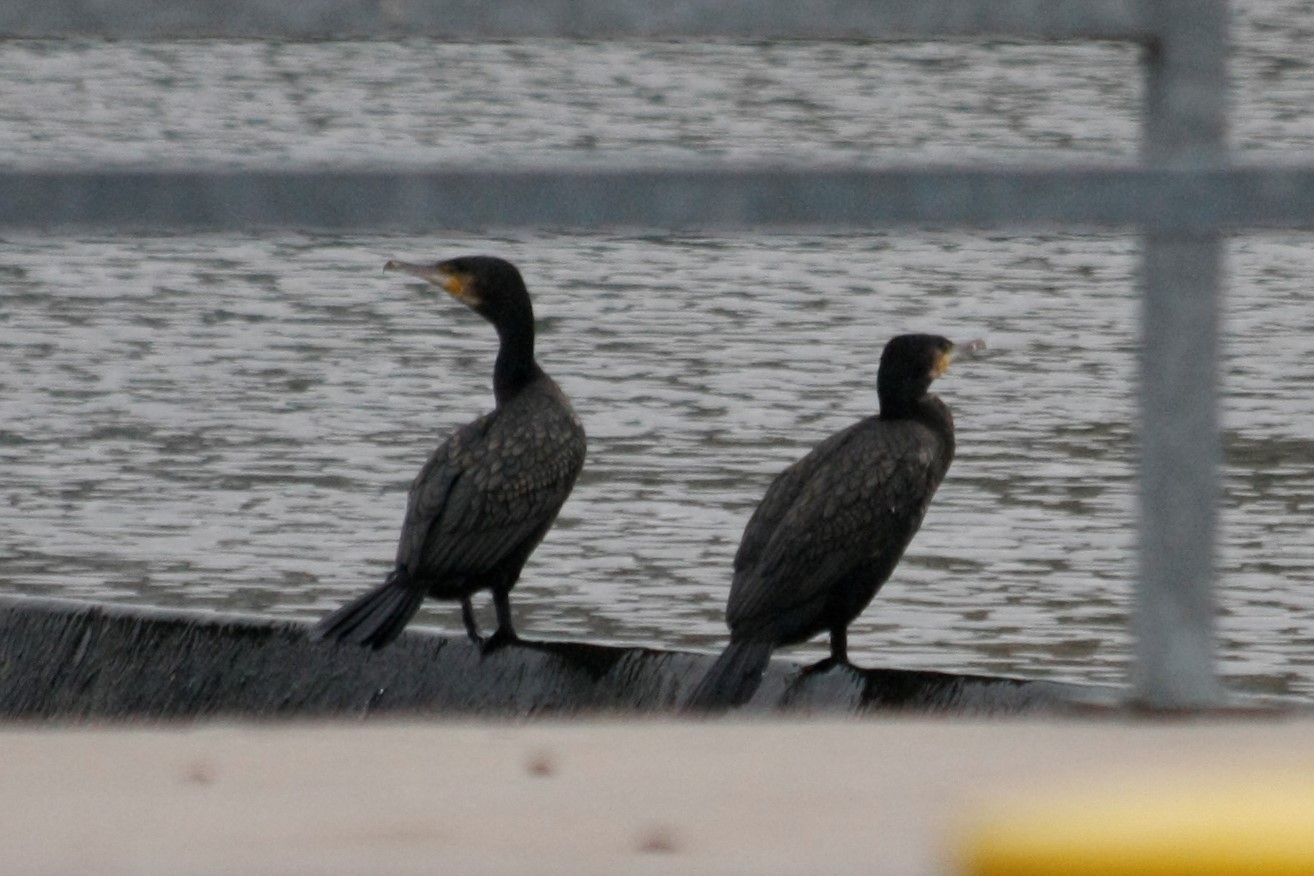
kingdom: Animalia
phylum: Chordata
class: Aves
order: Suliformes
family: Phalacrocoracidae
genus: Phalacrocorax
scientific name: Phalacrocorax carbo
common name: Great cormorant
